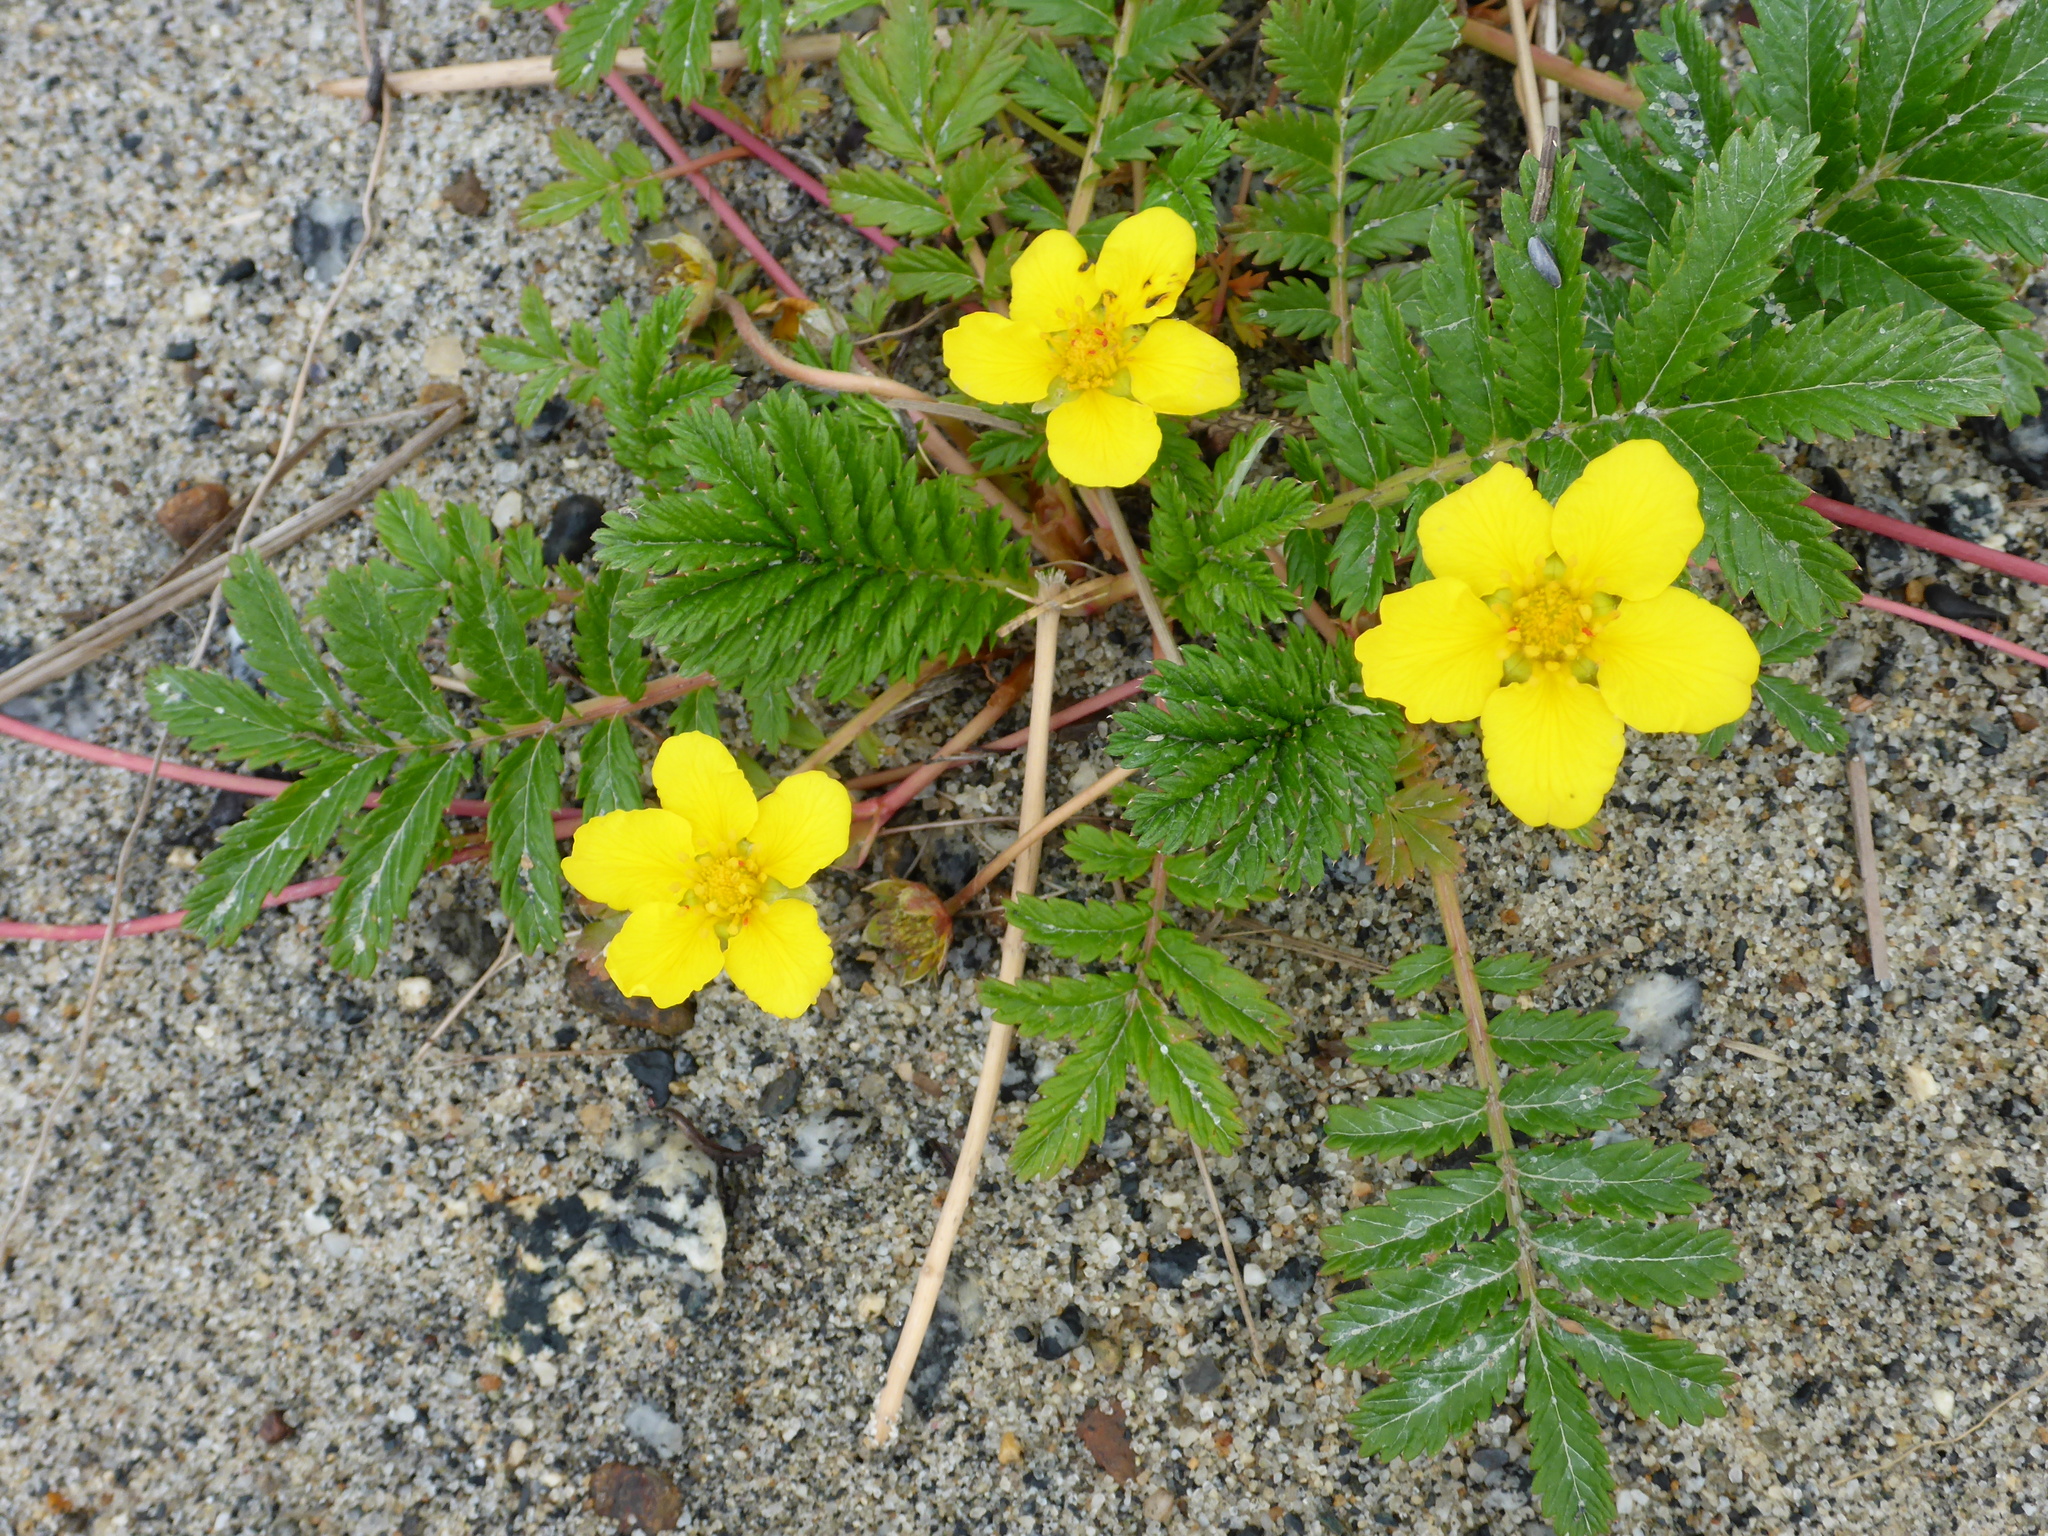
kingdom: Plantae
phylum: Tracheophyta
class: Magnoliopsida
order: Rosales
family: Rosaceae
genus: Argentina
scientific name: Argentina anserina
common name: Common silverweed
